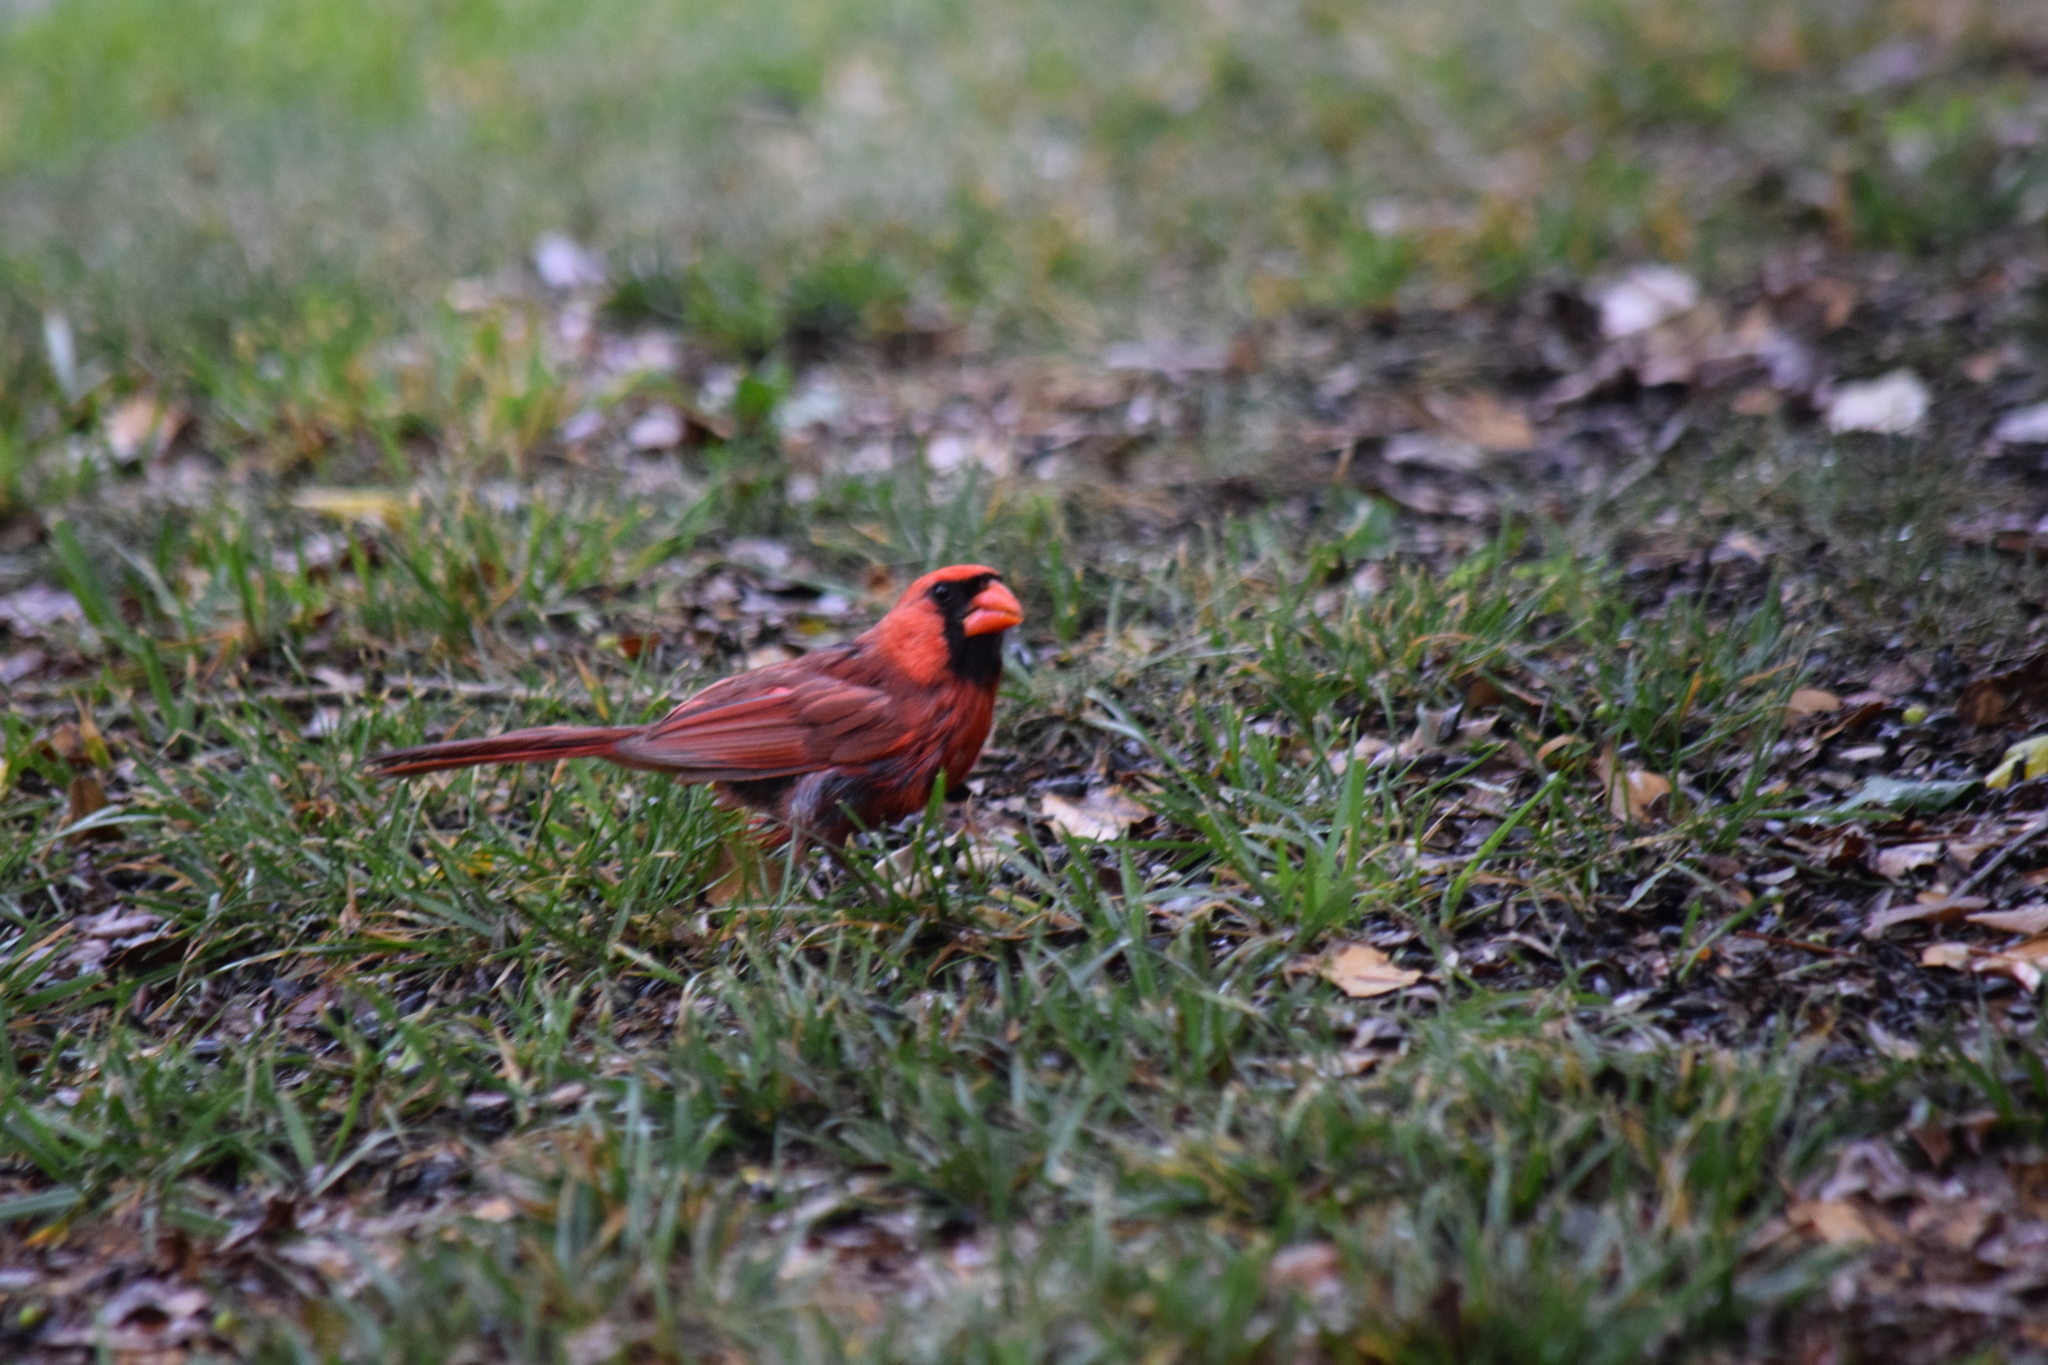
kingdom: Animalia
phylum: Chordata
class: Aves
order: Passeriformes
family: Cardinalidae
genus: Cardinalis
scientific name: Cardinalis cardinalis
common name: Northern cardinal
